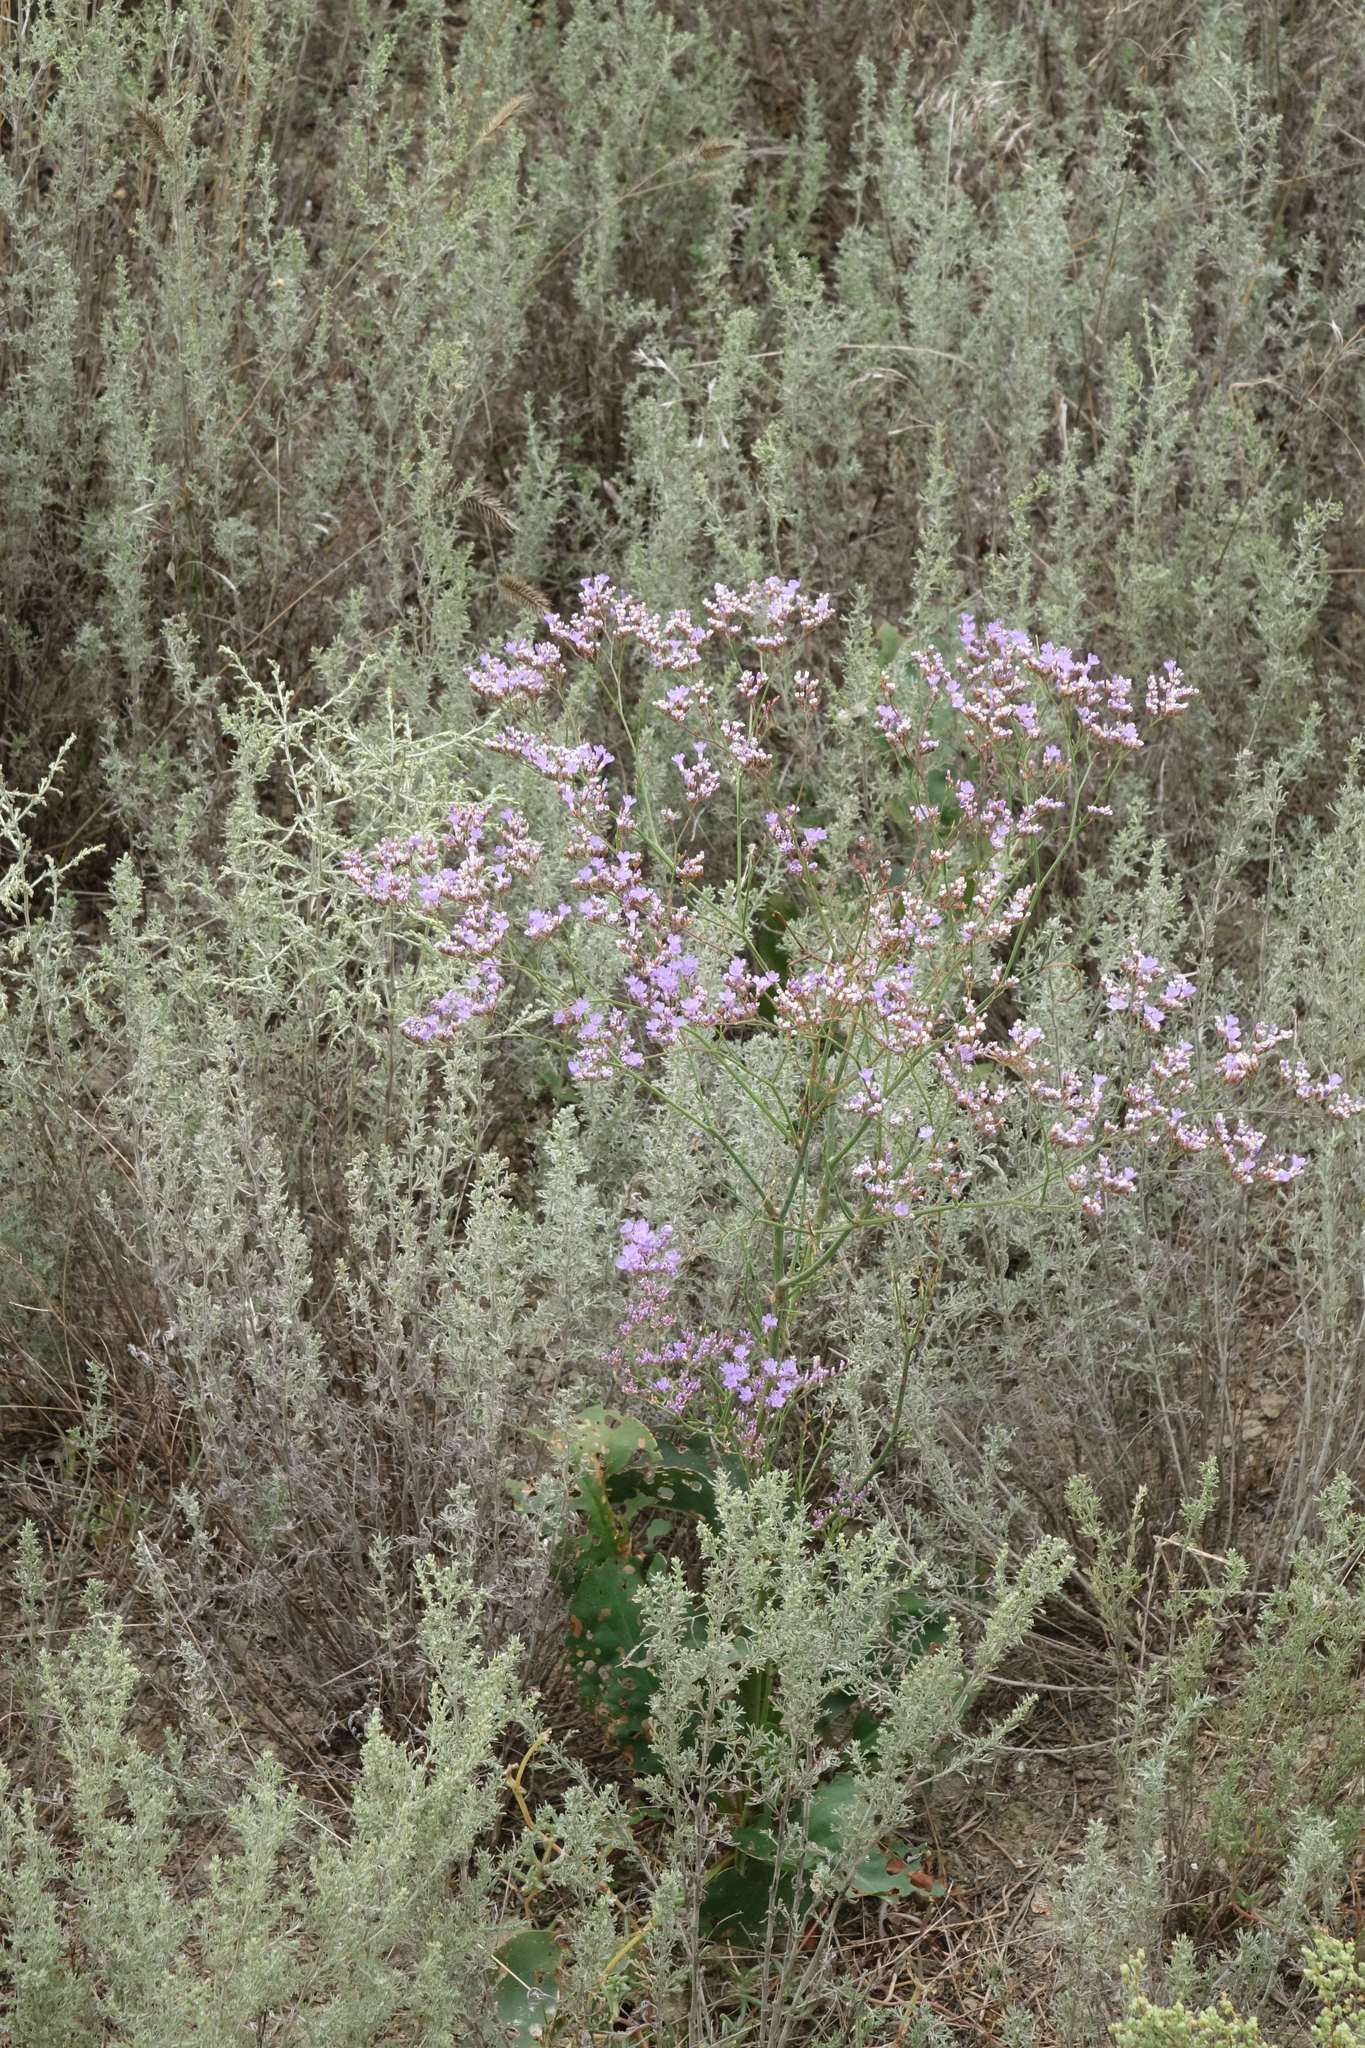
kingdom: Plantae
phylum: Tracheophyta
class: Magnoliopsida
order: Caryophyllales
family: Plumbaginaceae
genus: Limonium
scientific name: Limonium scoparium
